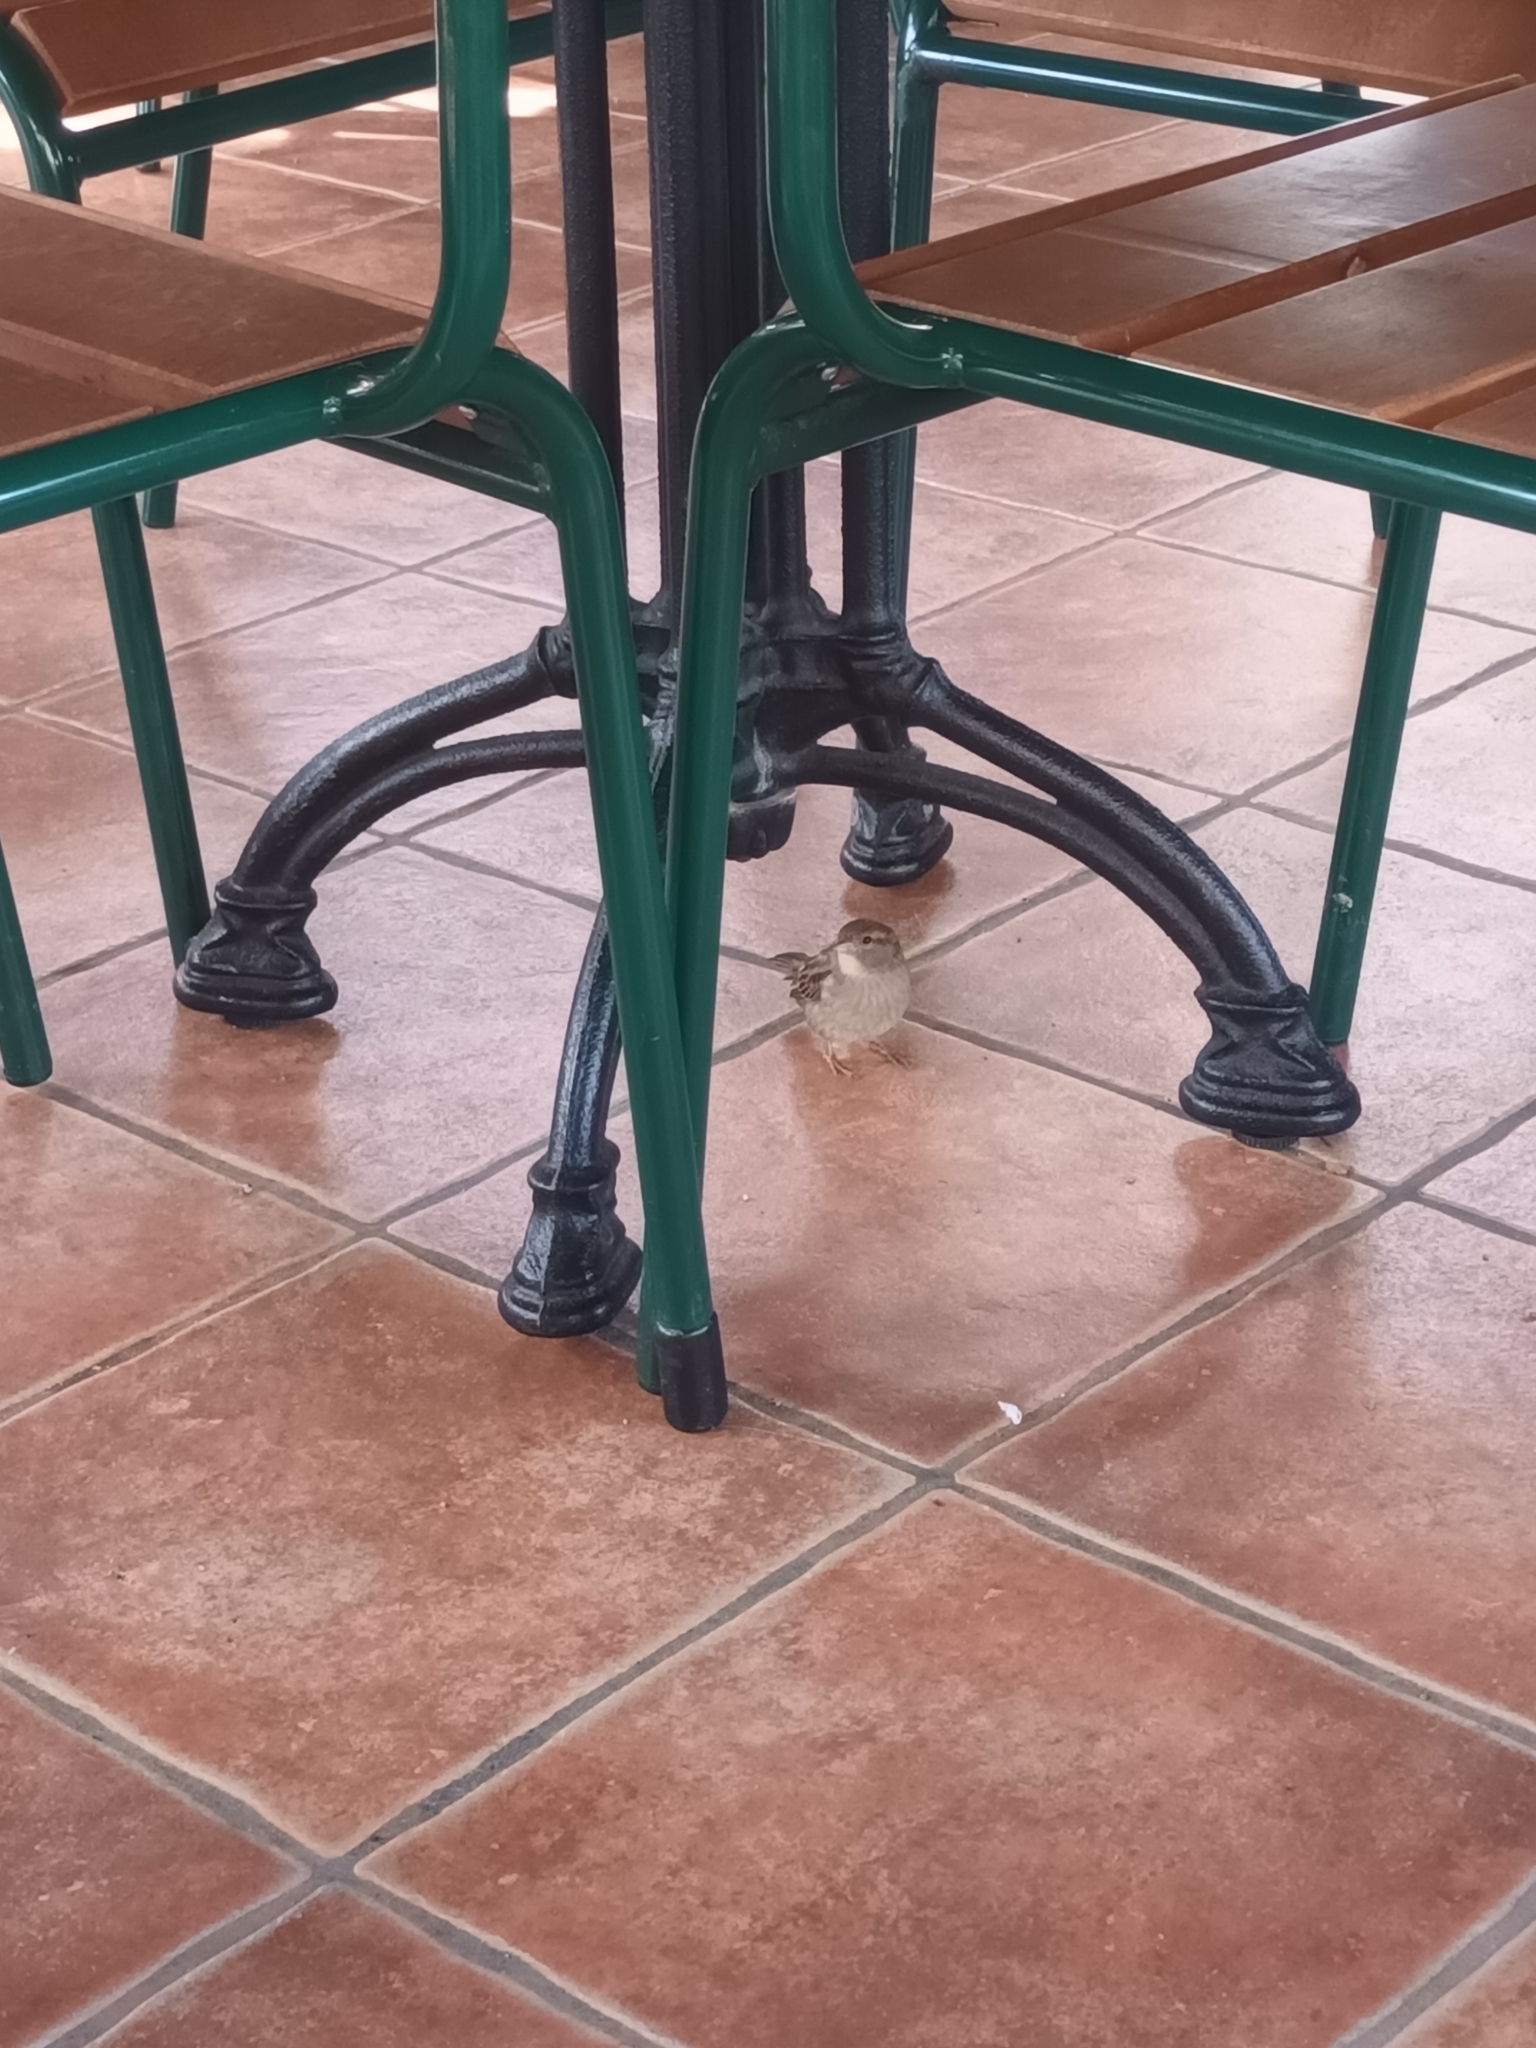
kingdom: Animalia
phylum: Chordata
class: Aves
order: Passeriformes
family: Passeridae
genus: Passer
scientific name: Passer domesticus
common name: House sparrow
